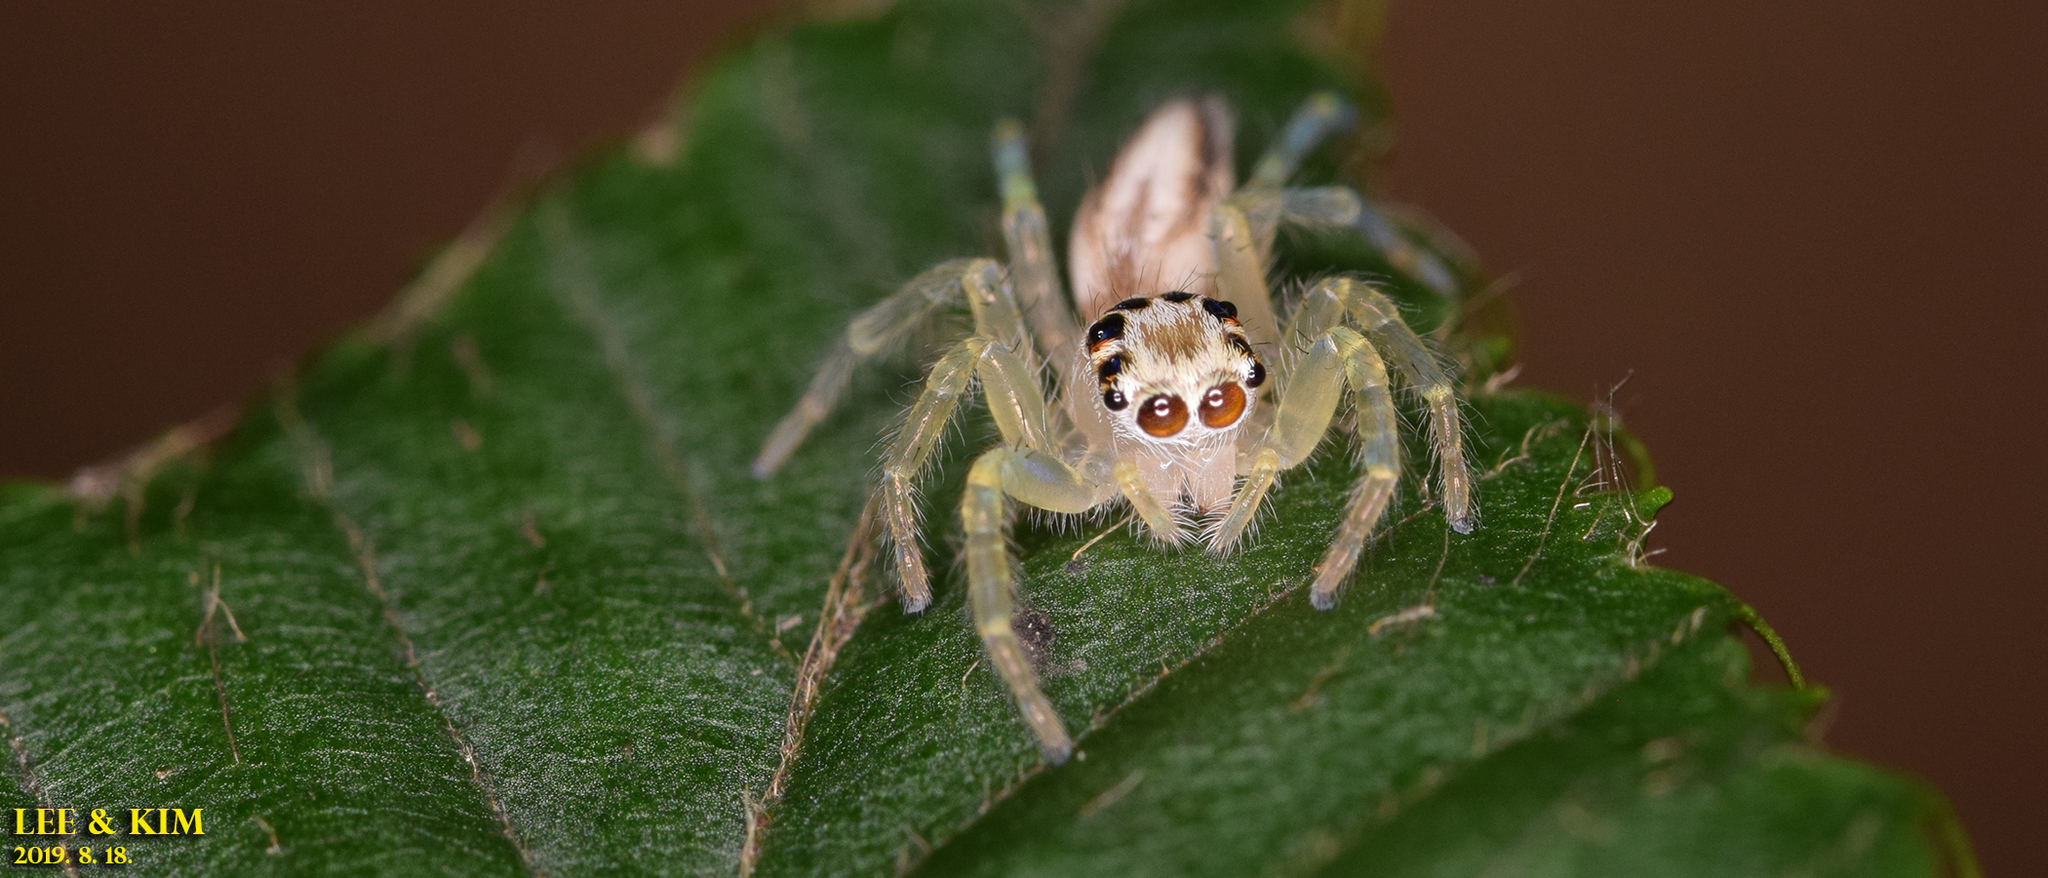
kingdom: Animalia
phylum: Arthropoda
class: Arachnida
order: Araneae
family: Salticidae
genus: Telamonia
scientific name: Telamonia vlijmi
